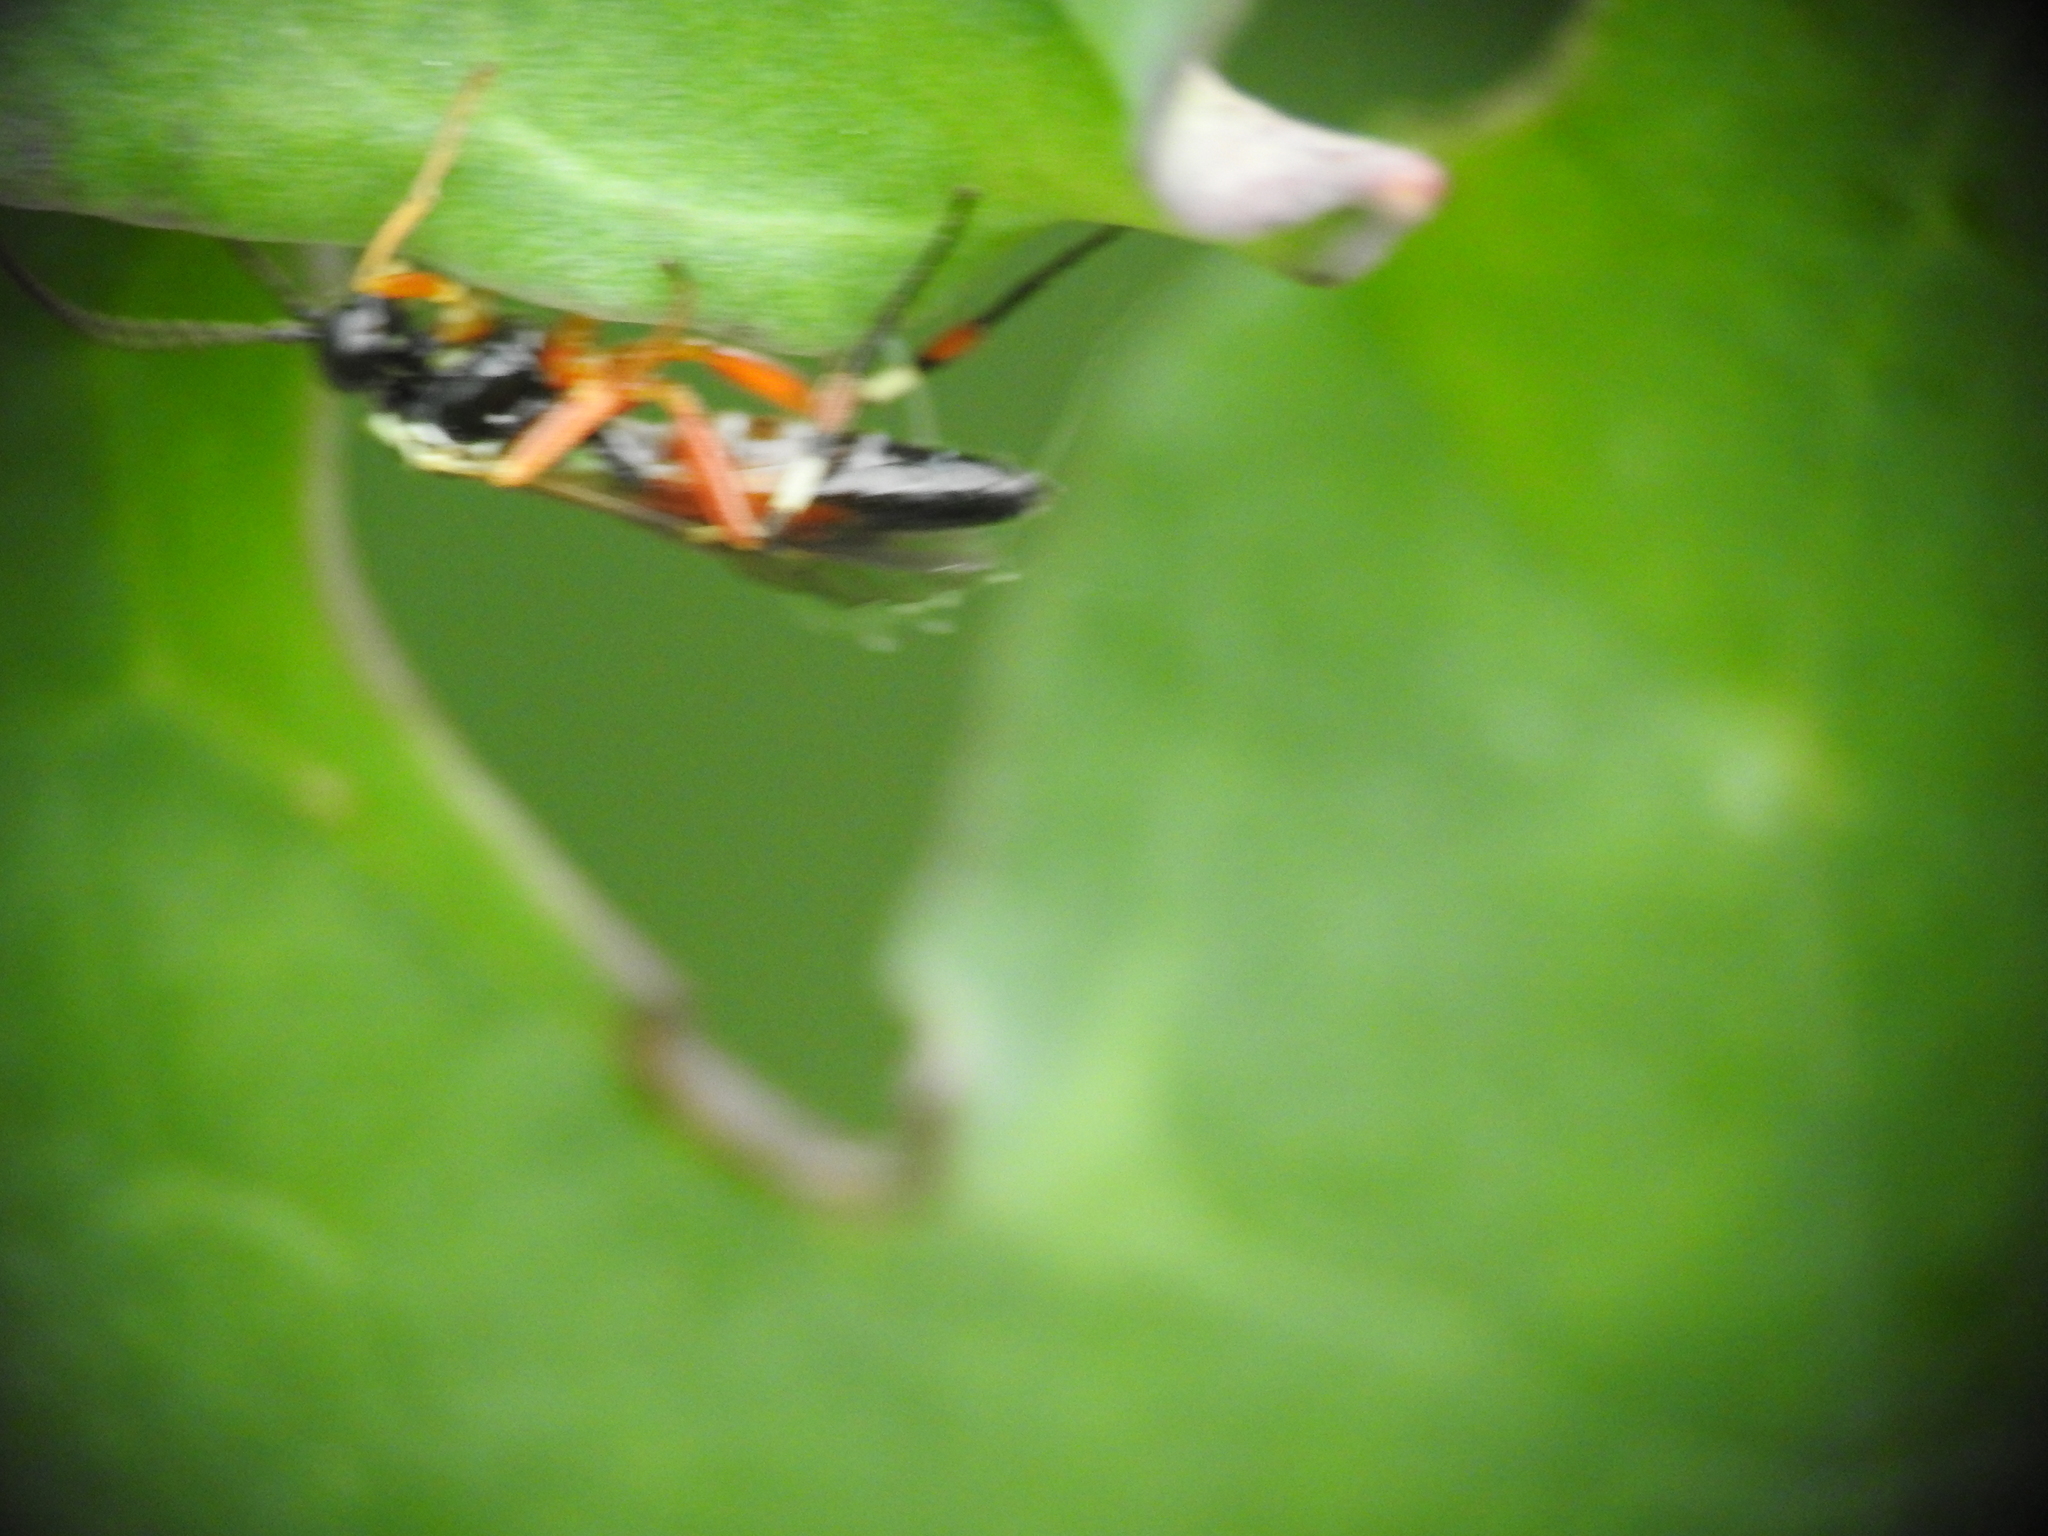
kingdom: Animalia
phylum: Arthropoda
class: Insecta
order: Hymenoptera
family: Ichneumonidae
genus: Diplazon
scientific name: Diplazon laetatorius
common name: Parasitoid wasp
